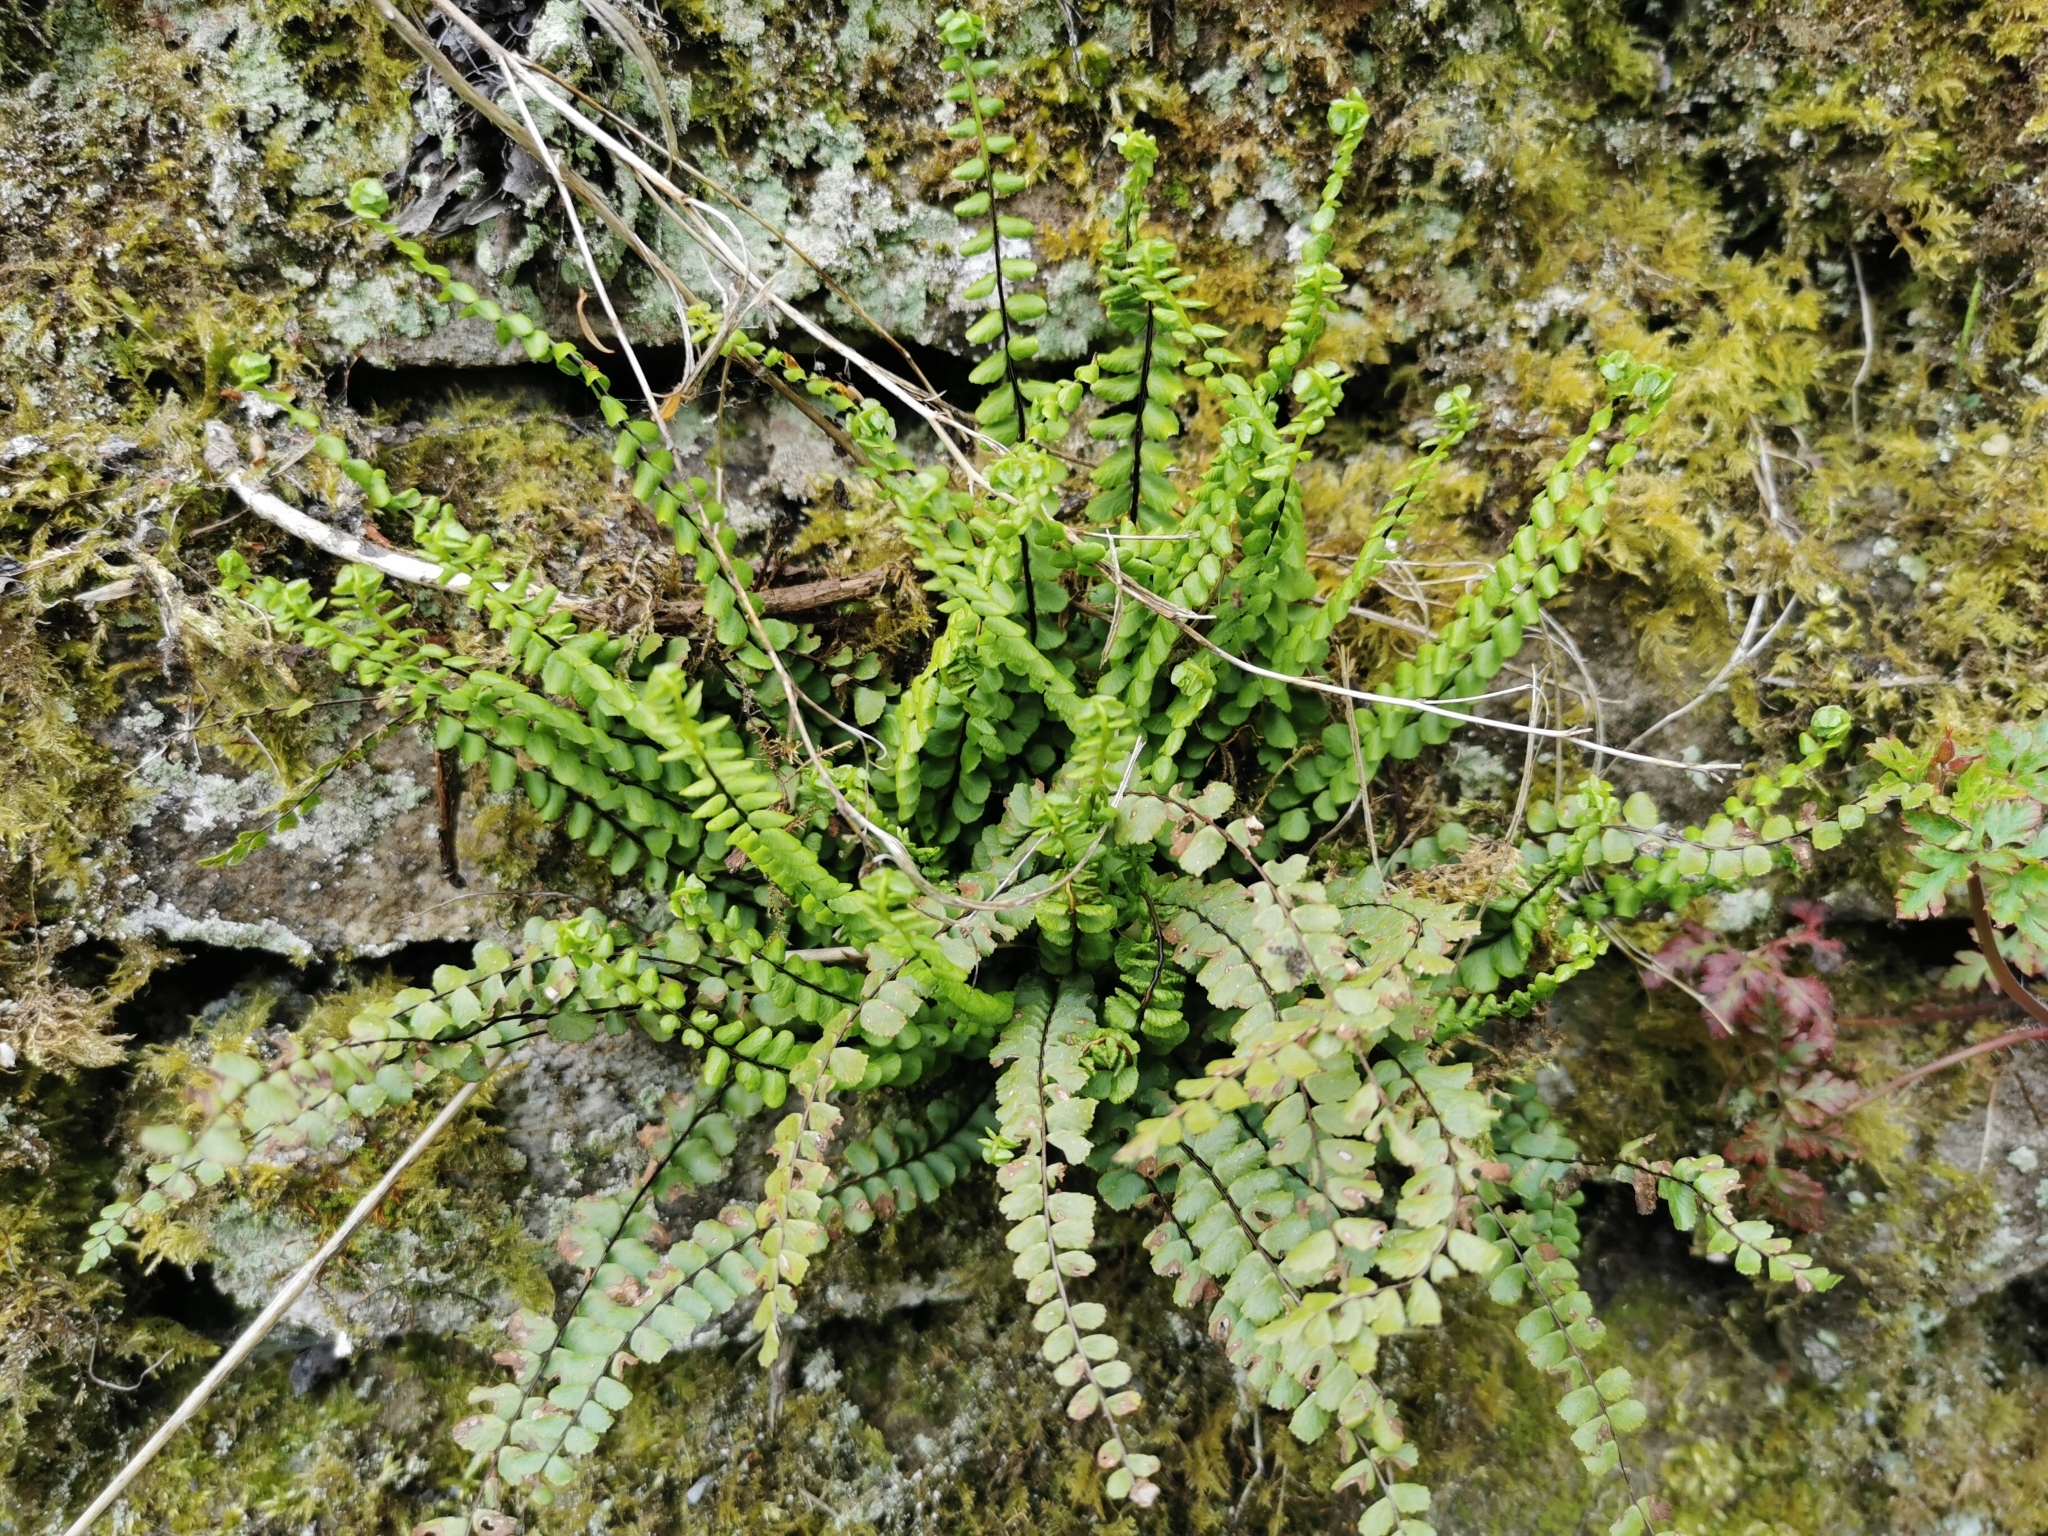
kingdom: Plantae
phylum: Tracheophyta
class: Polypodiopsida
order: Polypodiales
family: Aspleniaceae
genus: Asplenium
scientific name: Asplenium trichomanes
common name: Maidenhair spleenwort
